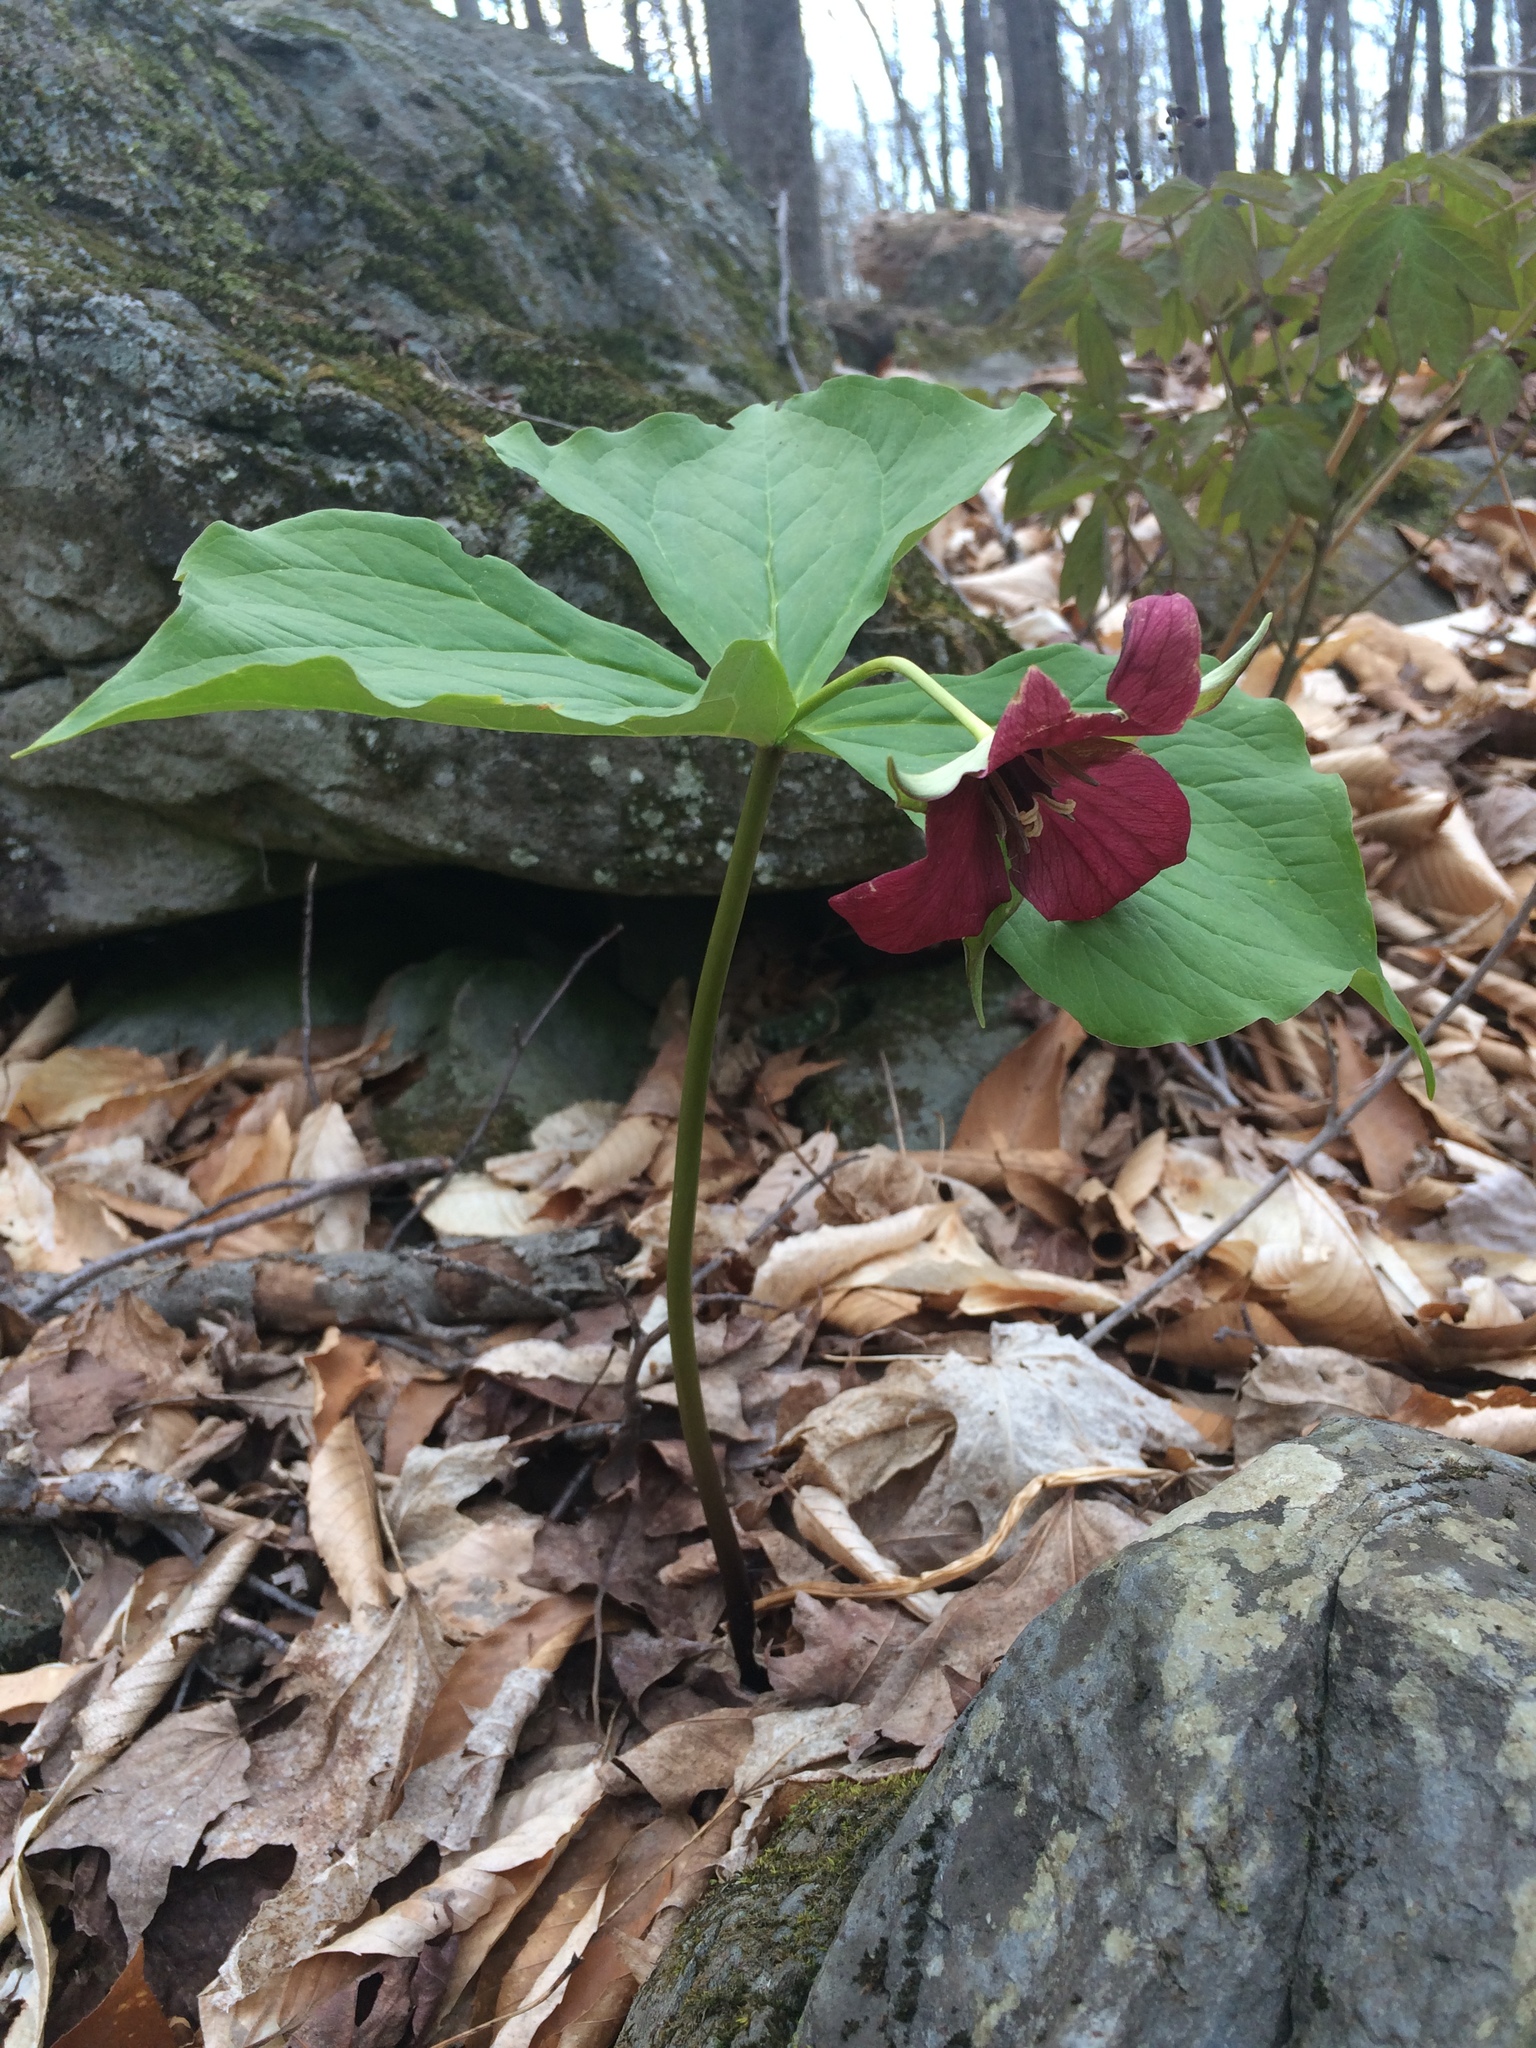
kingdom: Plantae
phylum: Tracheophyta
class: Liliopsida
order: Liliales
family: Melanthiaceae
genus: Trillium
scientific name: Trillium erectum
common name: Purple trillium
